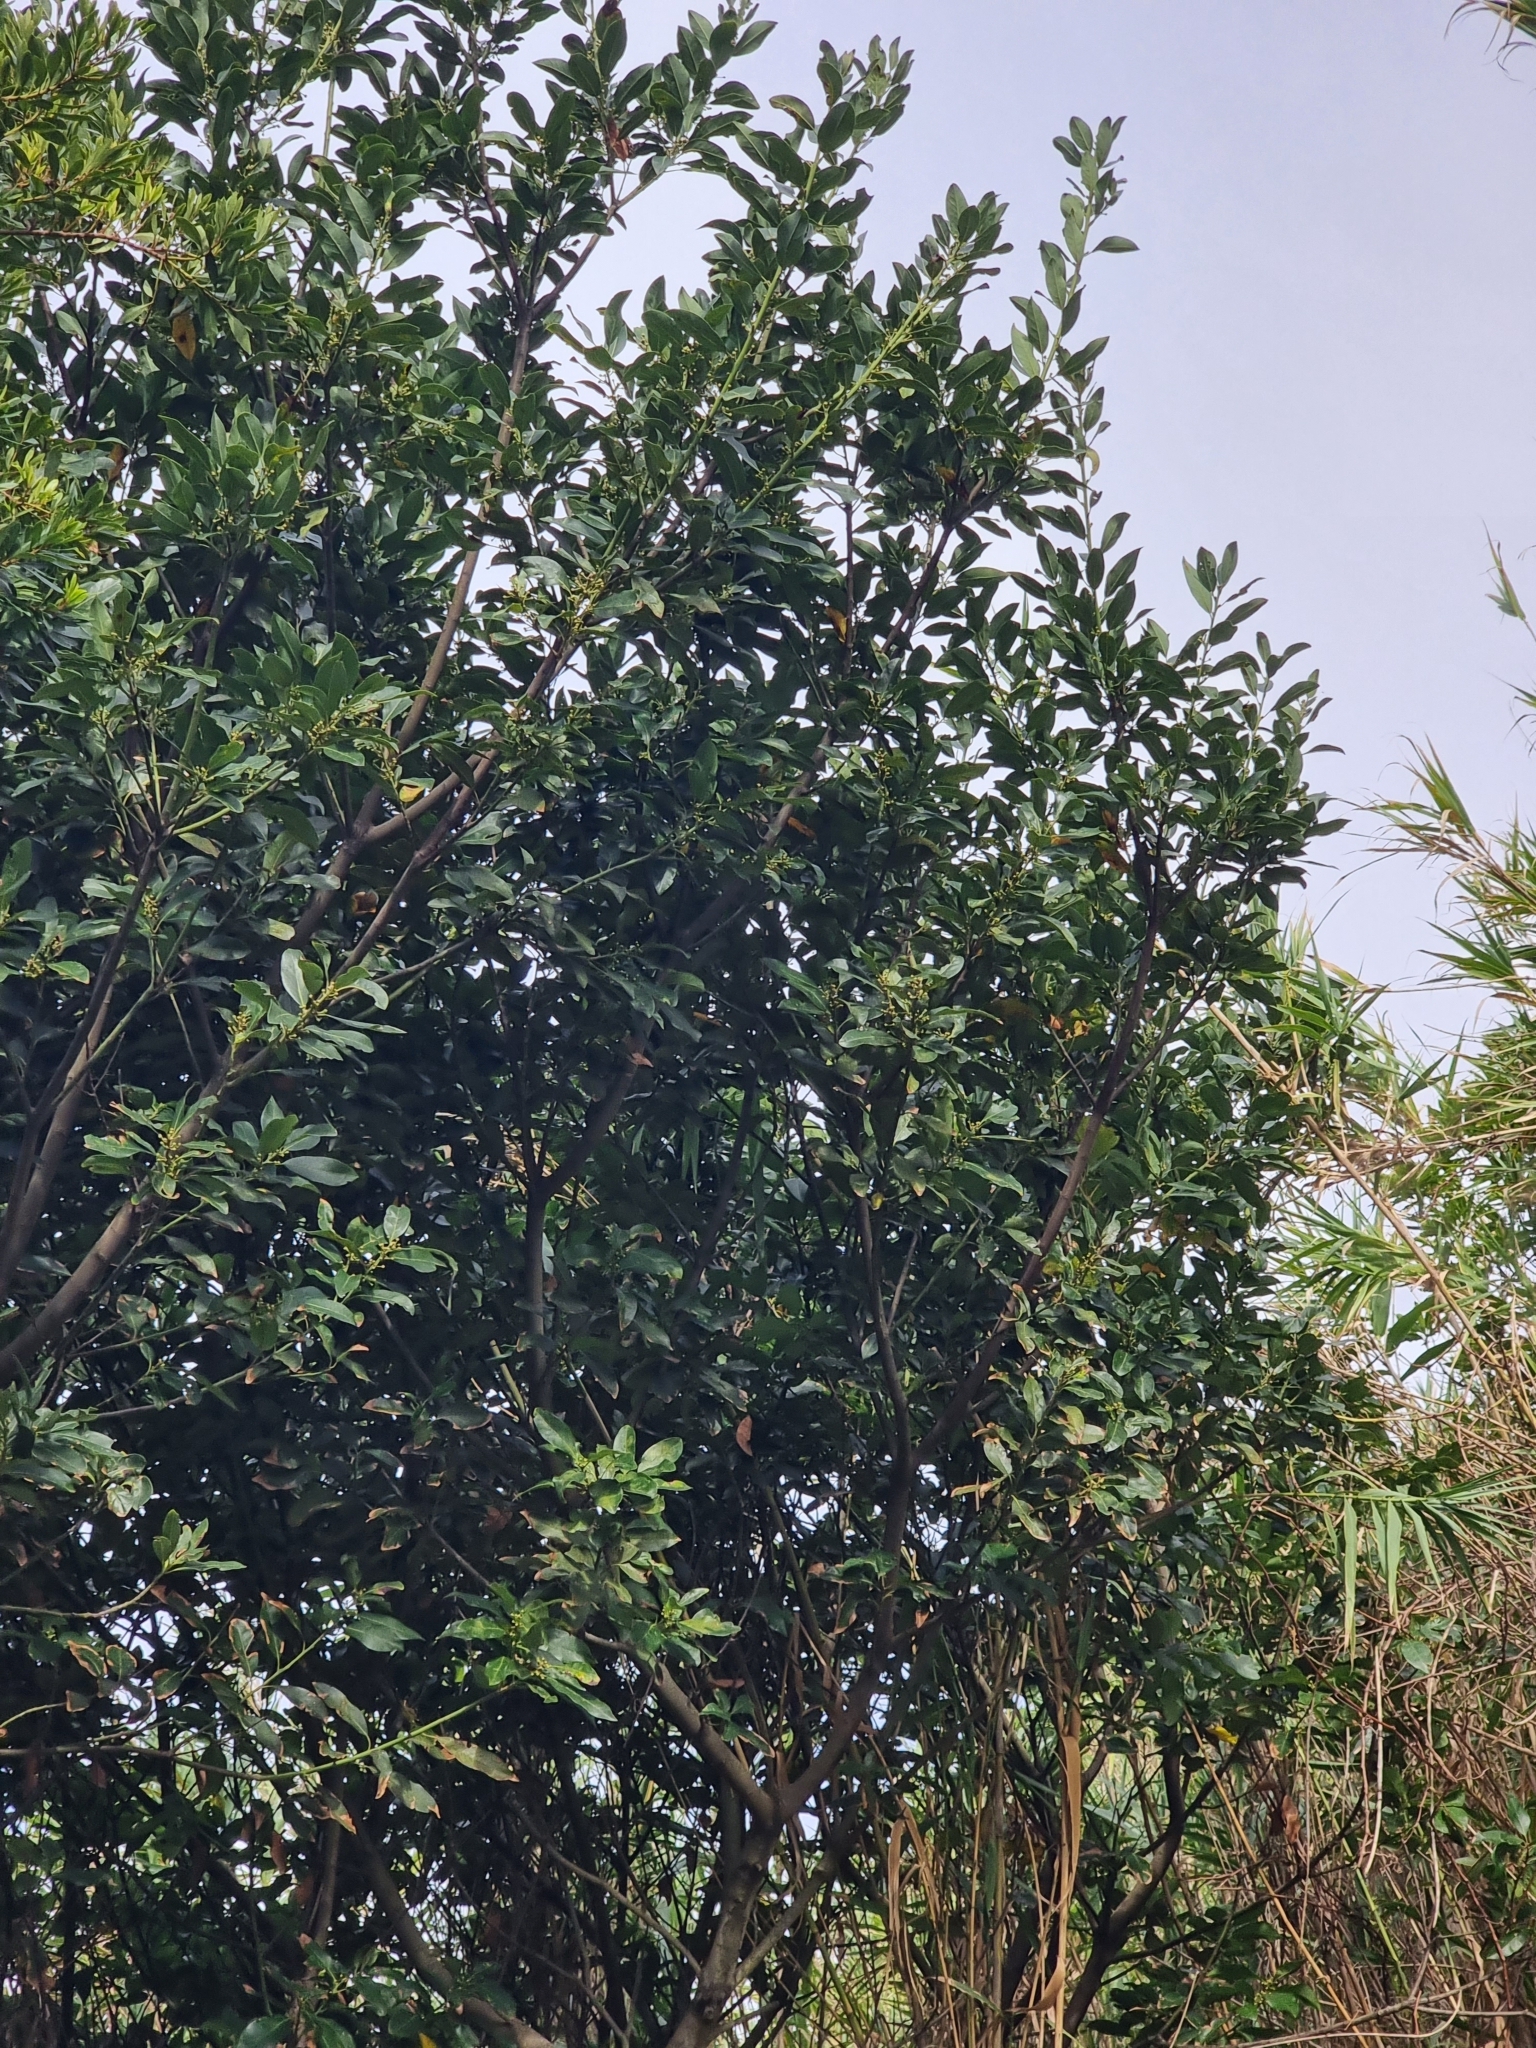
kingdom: Plantae
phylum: Tracheophyta
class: Magnoliopsida
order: Laurales
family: Lauraceae
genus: Laurus
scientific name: Laurus novocanariensis
